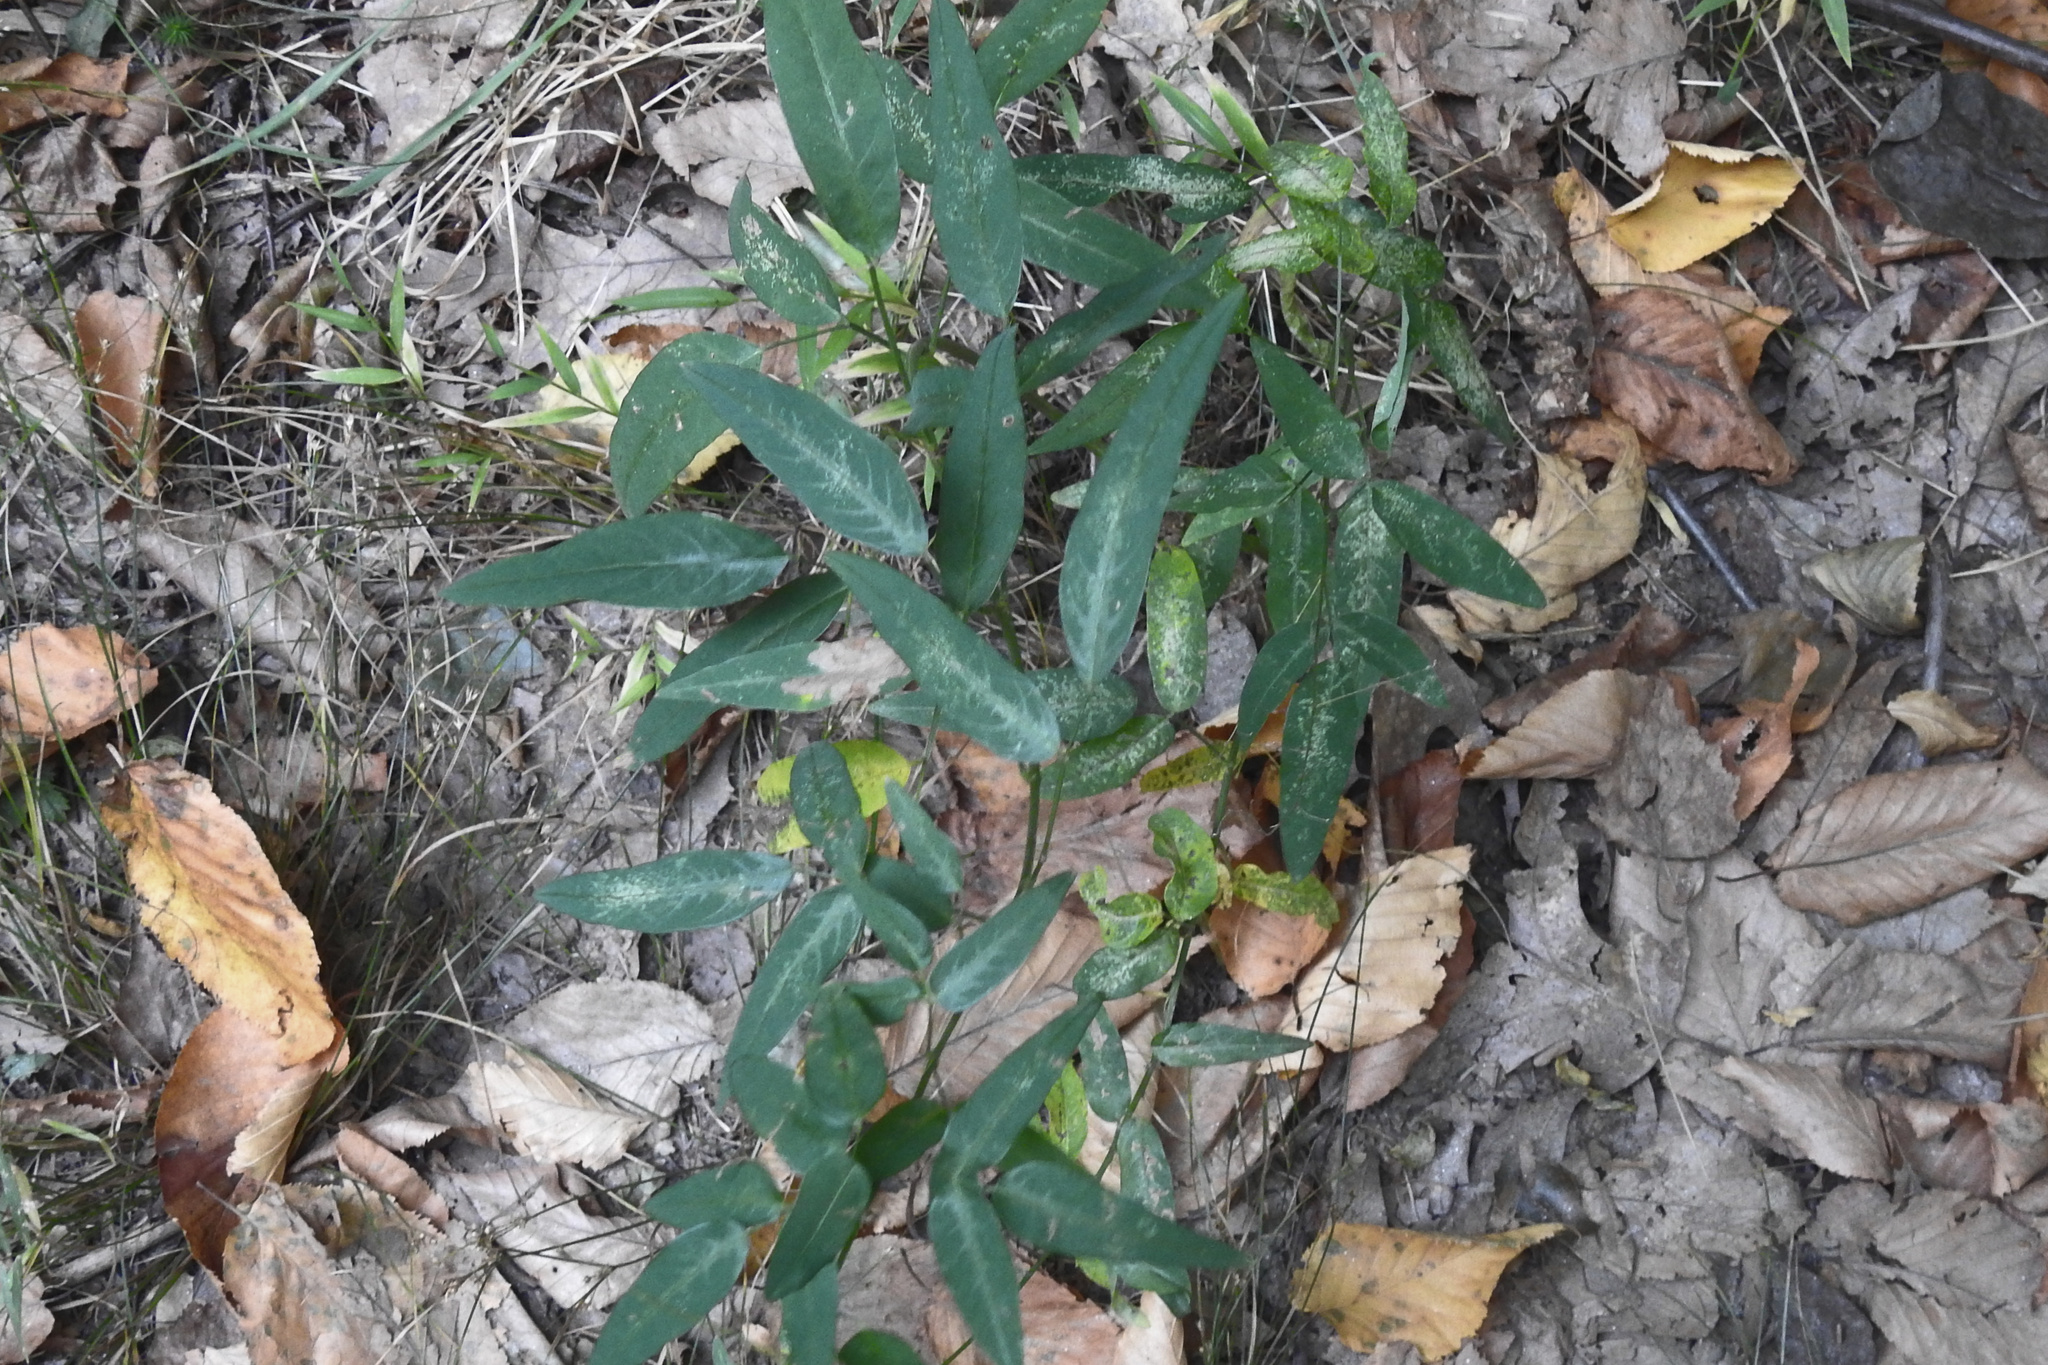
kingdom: Plantae
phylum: Tracheophyta
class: Magnoliopsida
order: Fabales
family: Fabaceae
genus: Desmodium
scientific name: Desmodium paniculatum
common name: Panicled tick-clover
